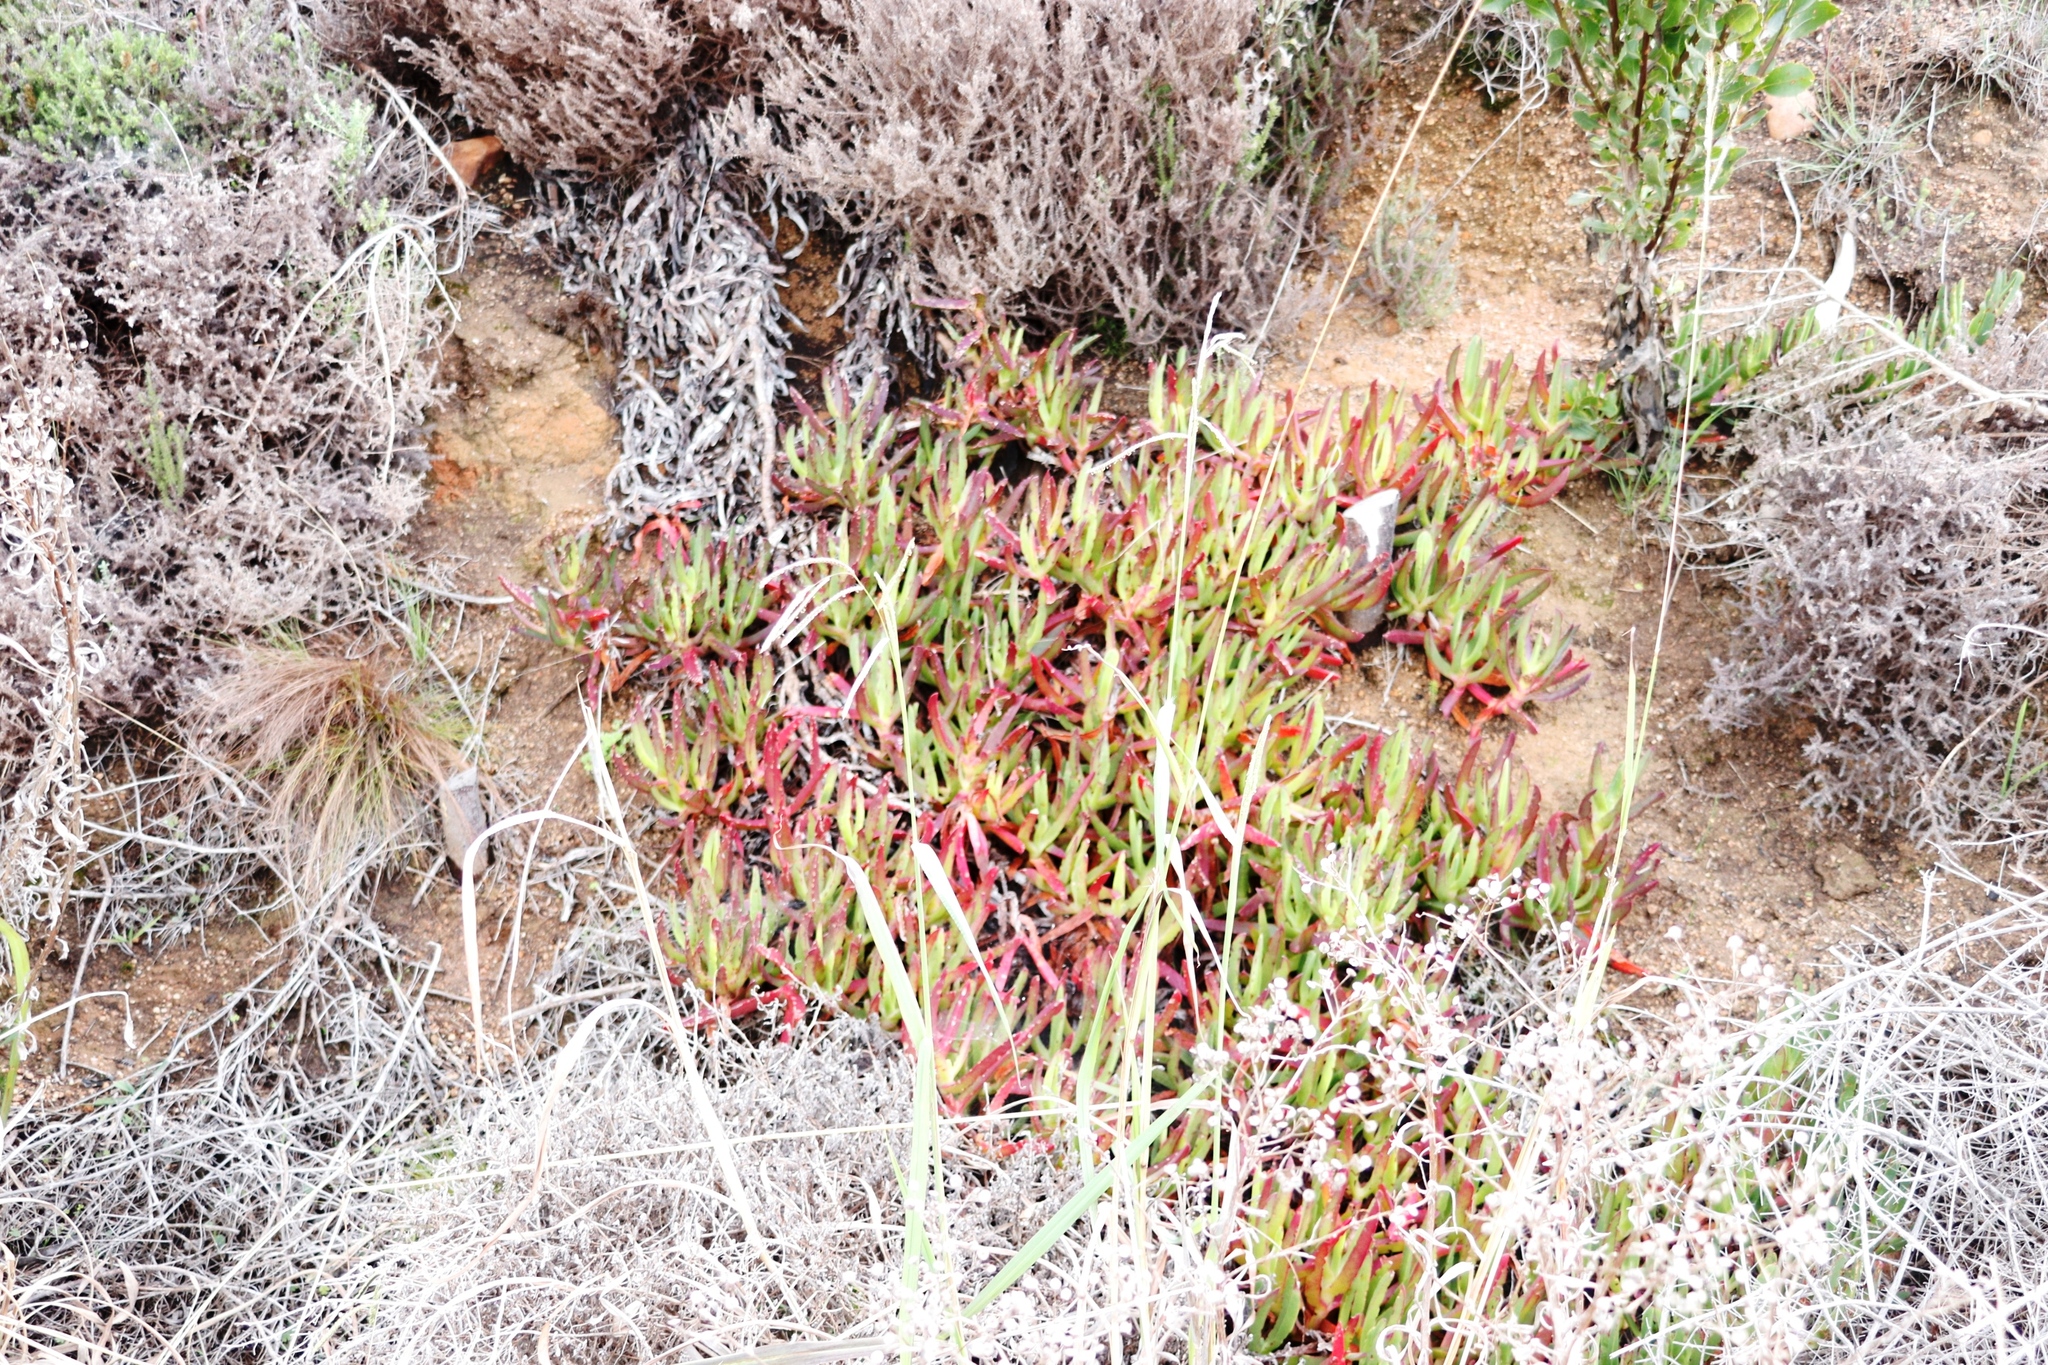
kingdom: Plantae
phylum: Tracheophyta
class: Magnoliopsida
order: Caryophyllales
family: Aizoaceae
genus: Carpobrotus
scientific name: Carpobrotus edulis
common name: Hottentot-fig
